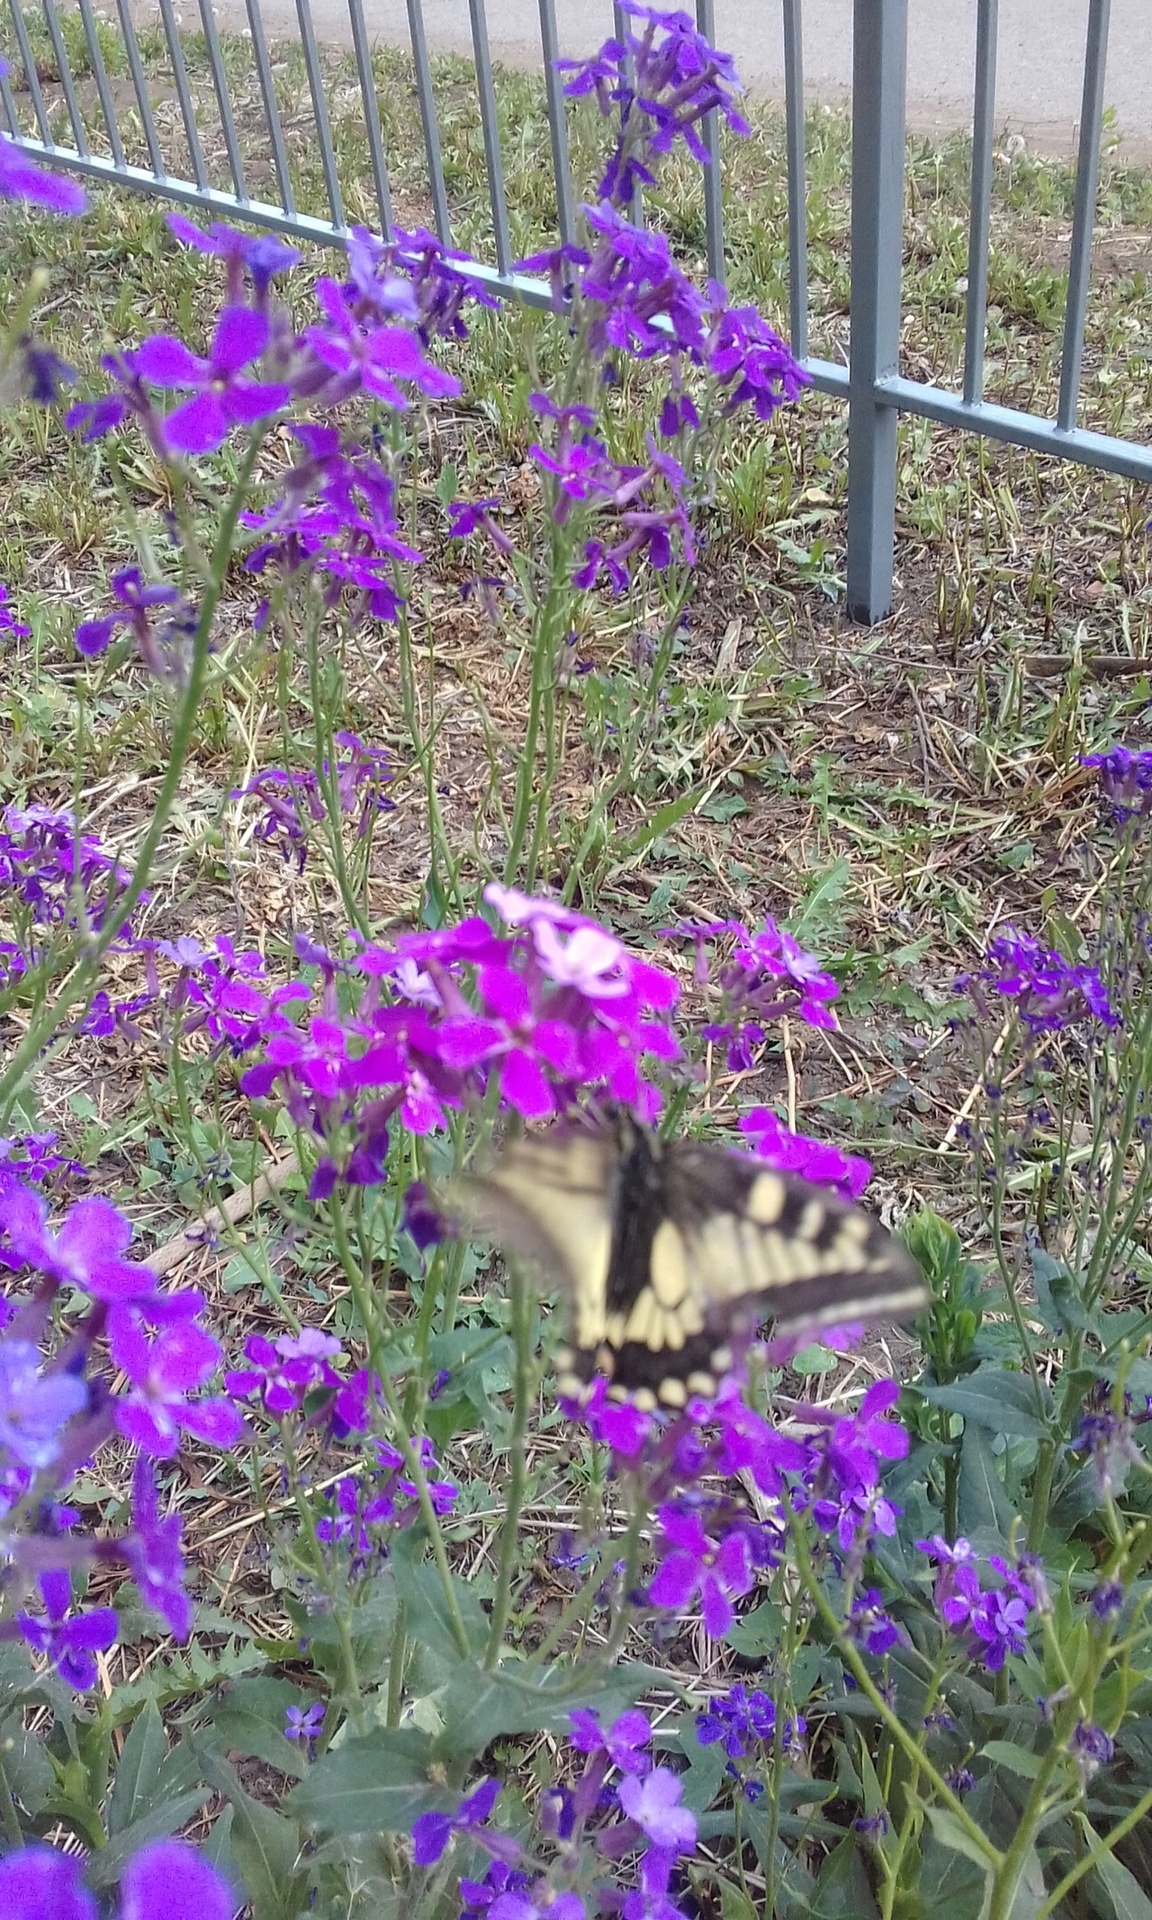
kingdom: Animalia
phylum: Arthropoda
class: Insecta
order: Lepidoptera
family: Papilionidae
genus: Papilio
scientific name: Papilio machaon
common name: Swallowtail
